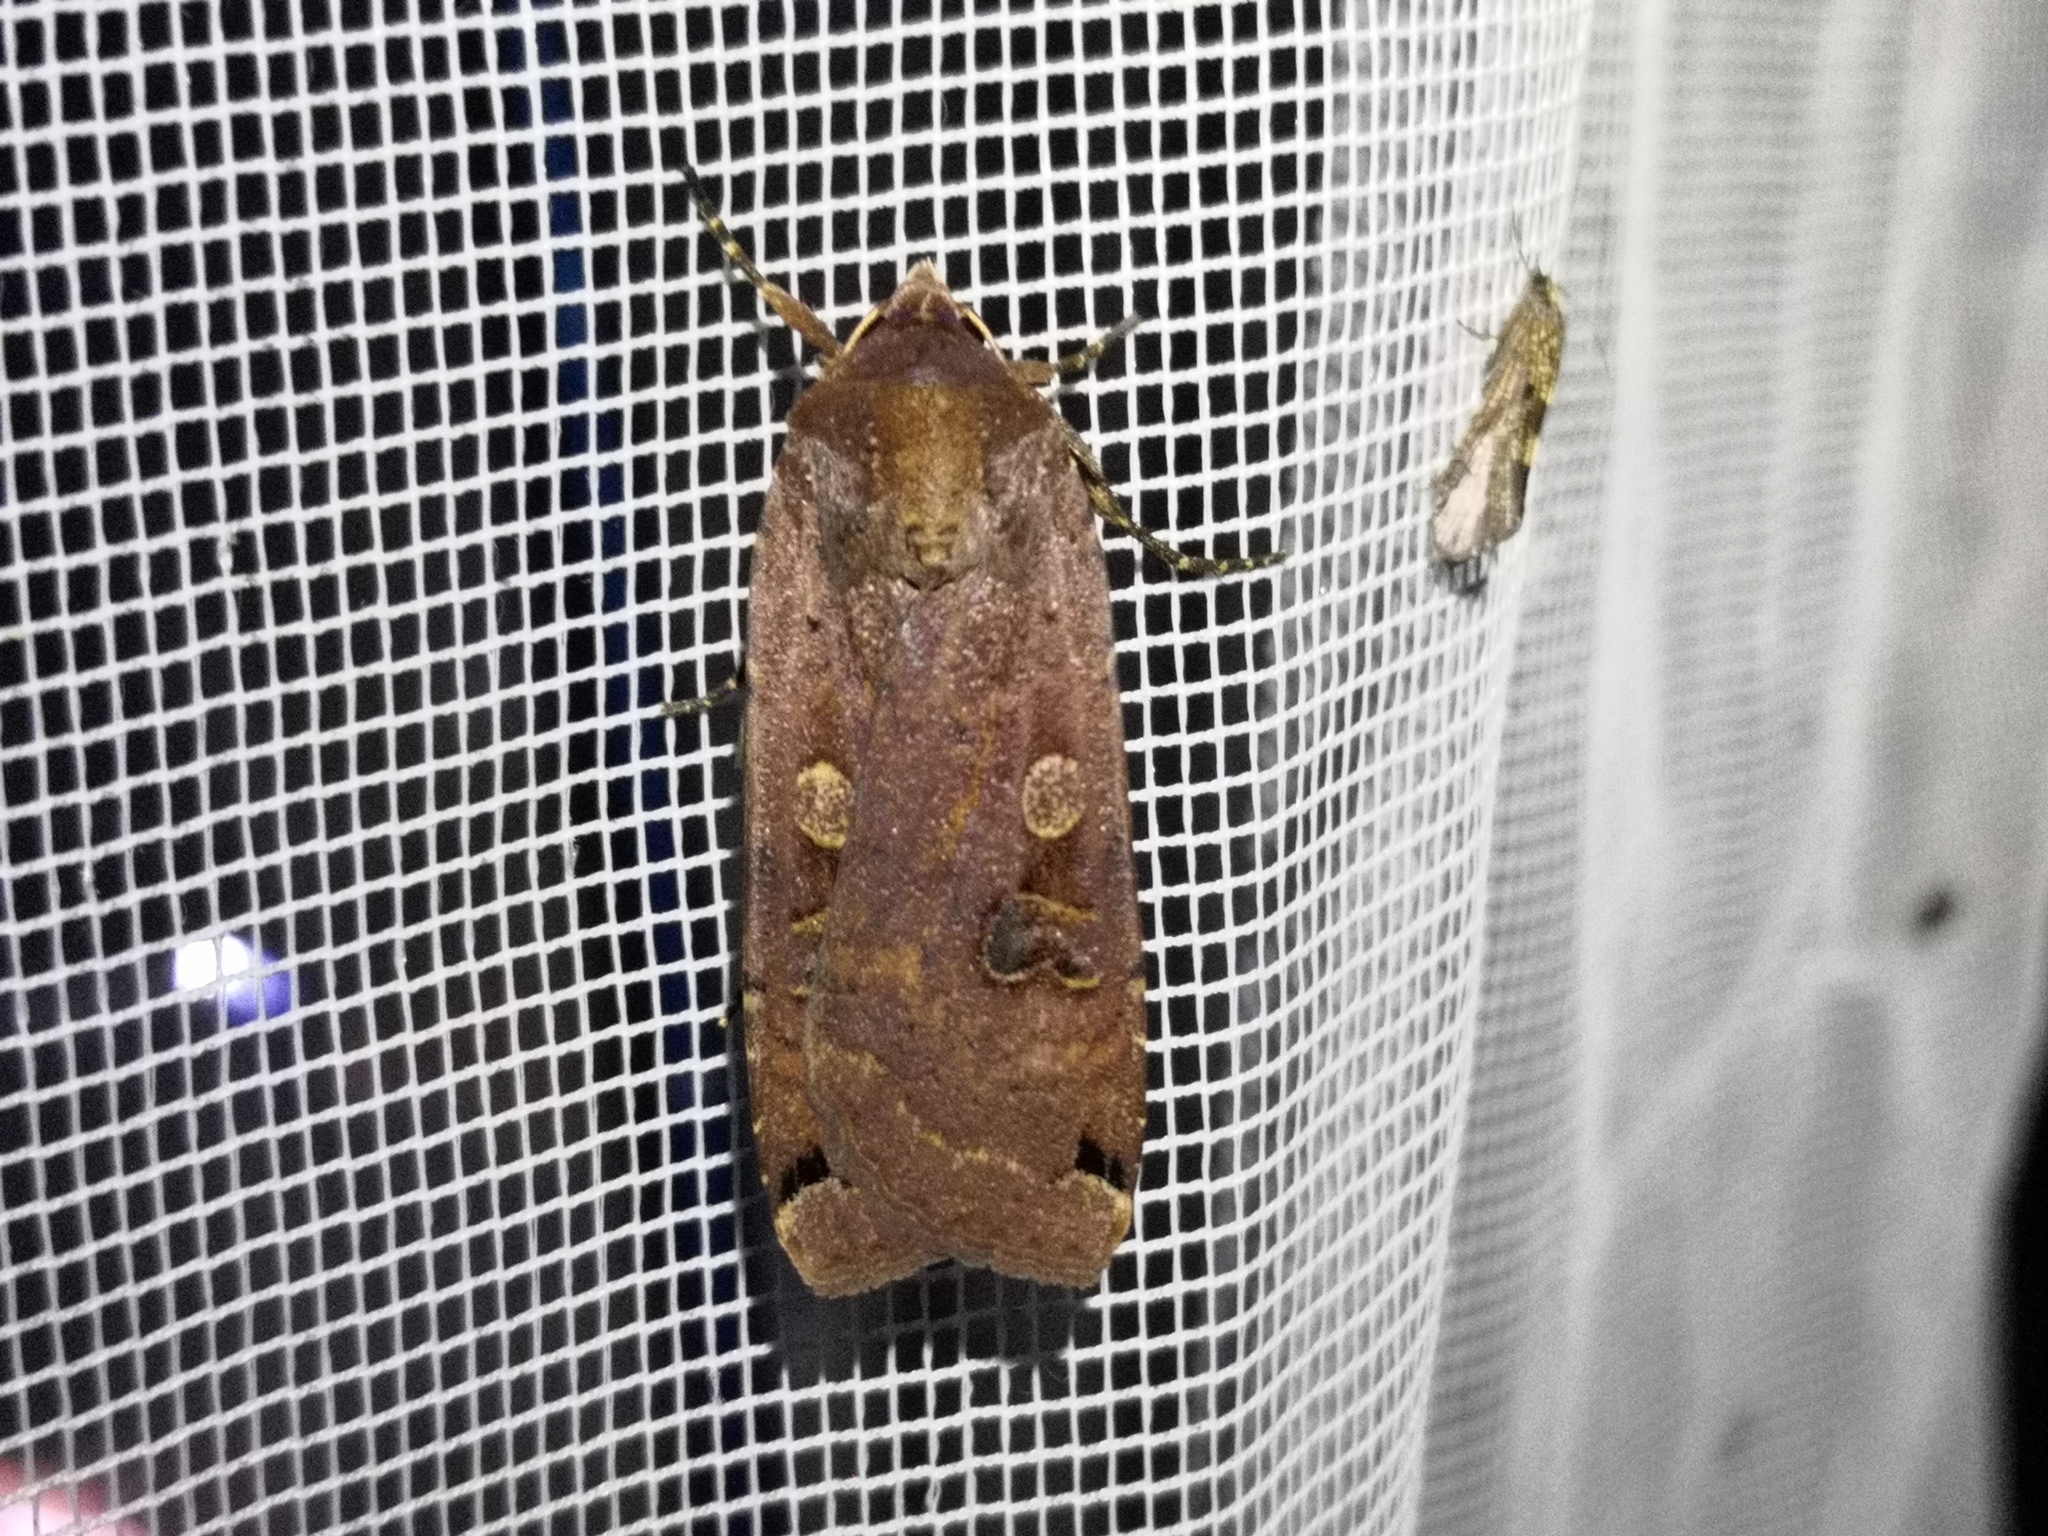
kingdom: Animalia
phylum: Arthropoda
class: Insecta
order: Lepidoptera
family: Noctuidae
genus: Noctua
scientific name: Noctua pronuba
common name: Large yellow underwing
